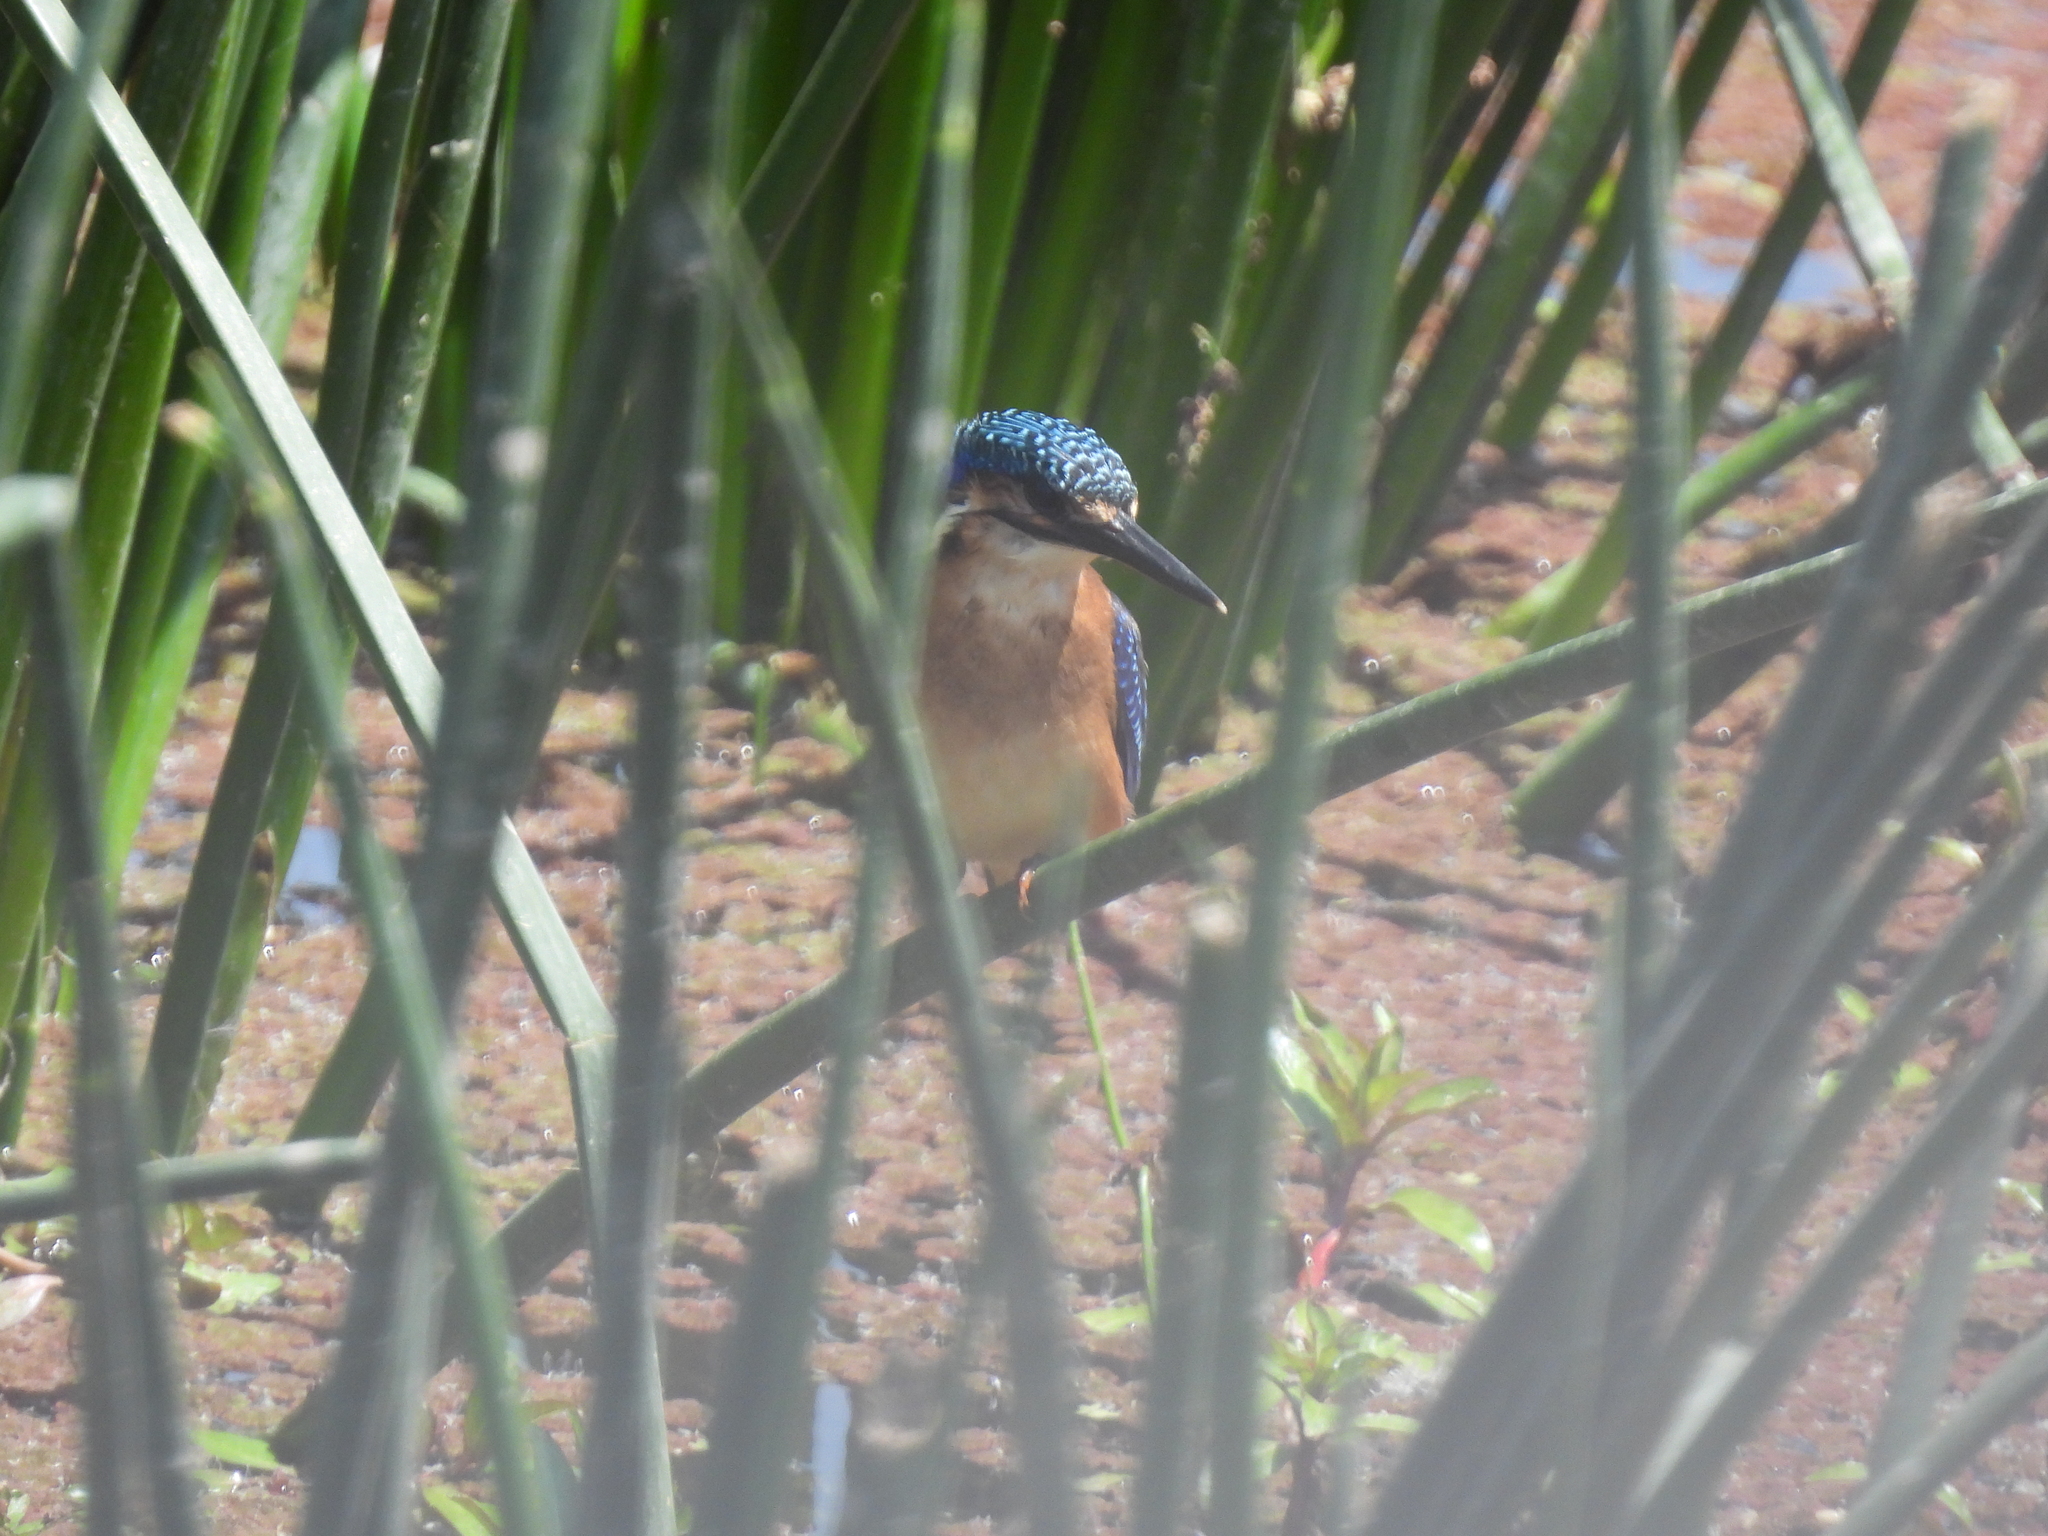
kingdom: Animalia
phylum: Chordata
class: Aves
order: Coraciiformes
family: Alcedinidae
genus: Corythornis
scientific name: Corythornis cristatus
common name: Malachite kingfisher
